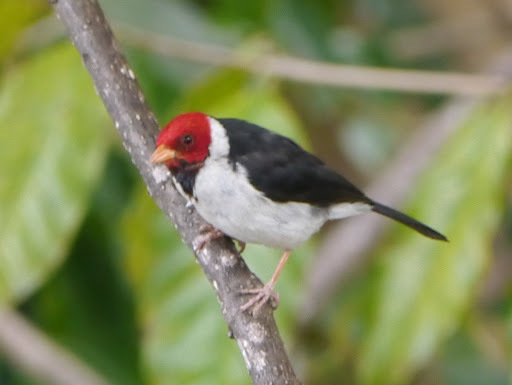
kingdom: Animalia
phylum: Chordata
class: Aves
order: Passeriformes
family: Thraupidae
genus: Paroaria
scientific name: Paroaria capitata
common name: Yellow-billed cardinal
